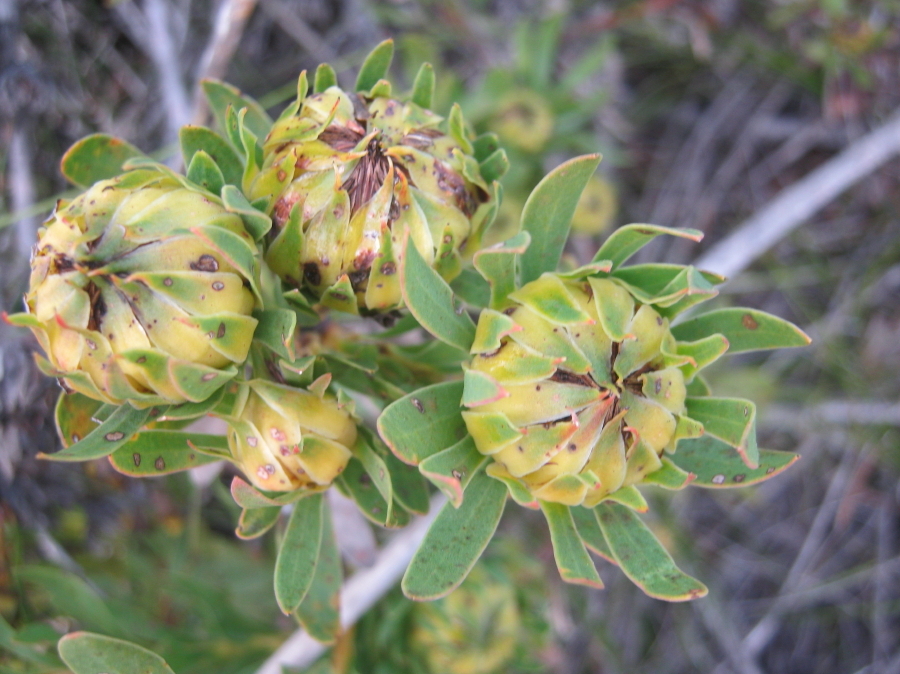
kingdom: Plantae
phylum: Tracheophyta
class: Magnoliopsida
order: Proteales
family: Proteaceae
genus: Aulax
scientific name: Aulax umbellata
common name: Broad-leaf featherbush
